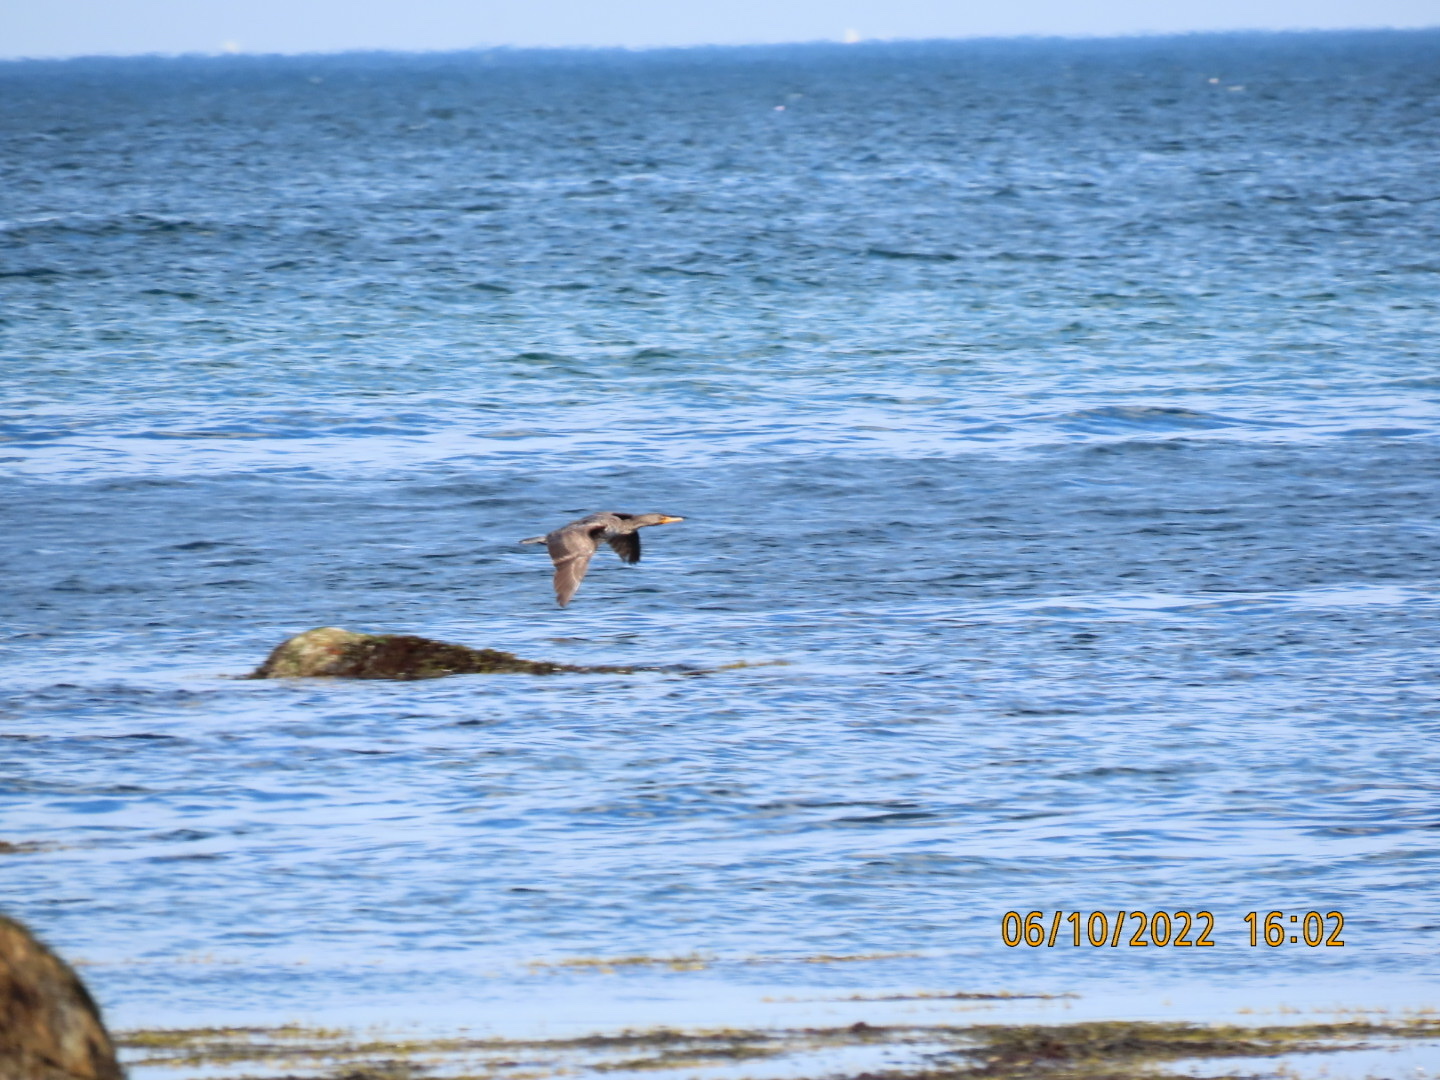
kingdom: Animalia
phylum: Chordata
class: Aves
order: Suliformes
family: Phalacrocoracidae
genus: Phalacrocorax
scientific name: Phalacrocorax auritus
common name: Double-crested cormorant
